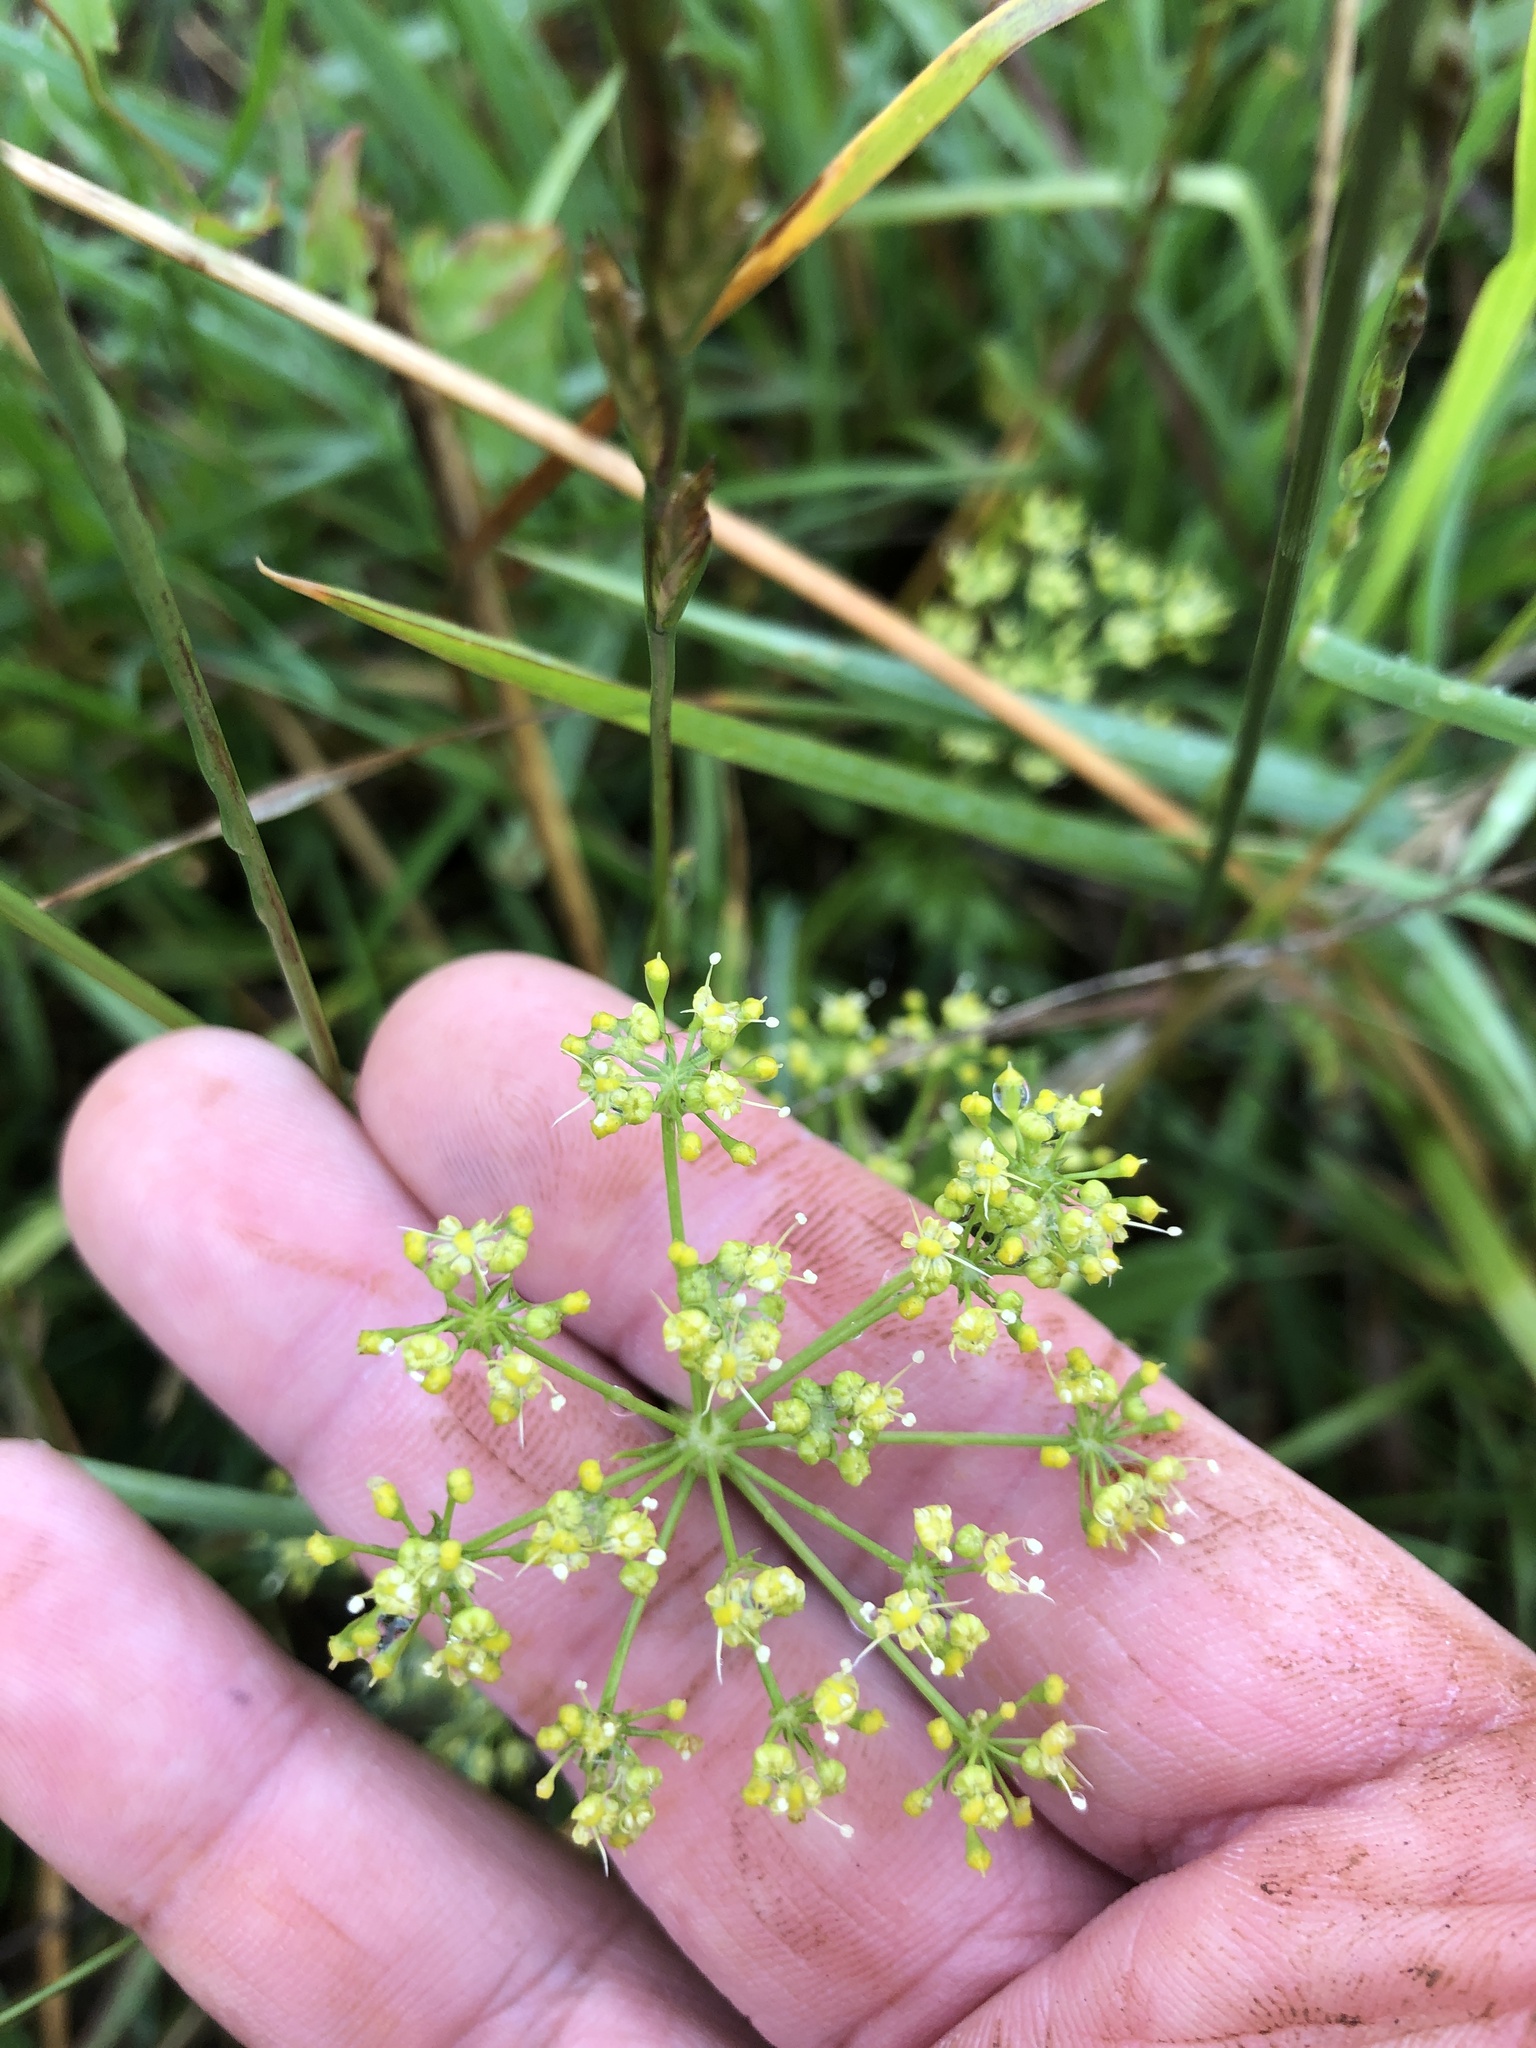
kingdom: Plantae
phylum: Tracheophyta
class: Magnoliopsida
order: Apiales
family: Apiaceae
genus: Silaum
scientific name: Silaum silaus
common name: Pepper-saxifrage
